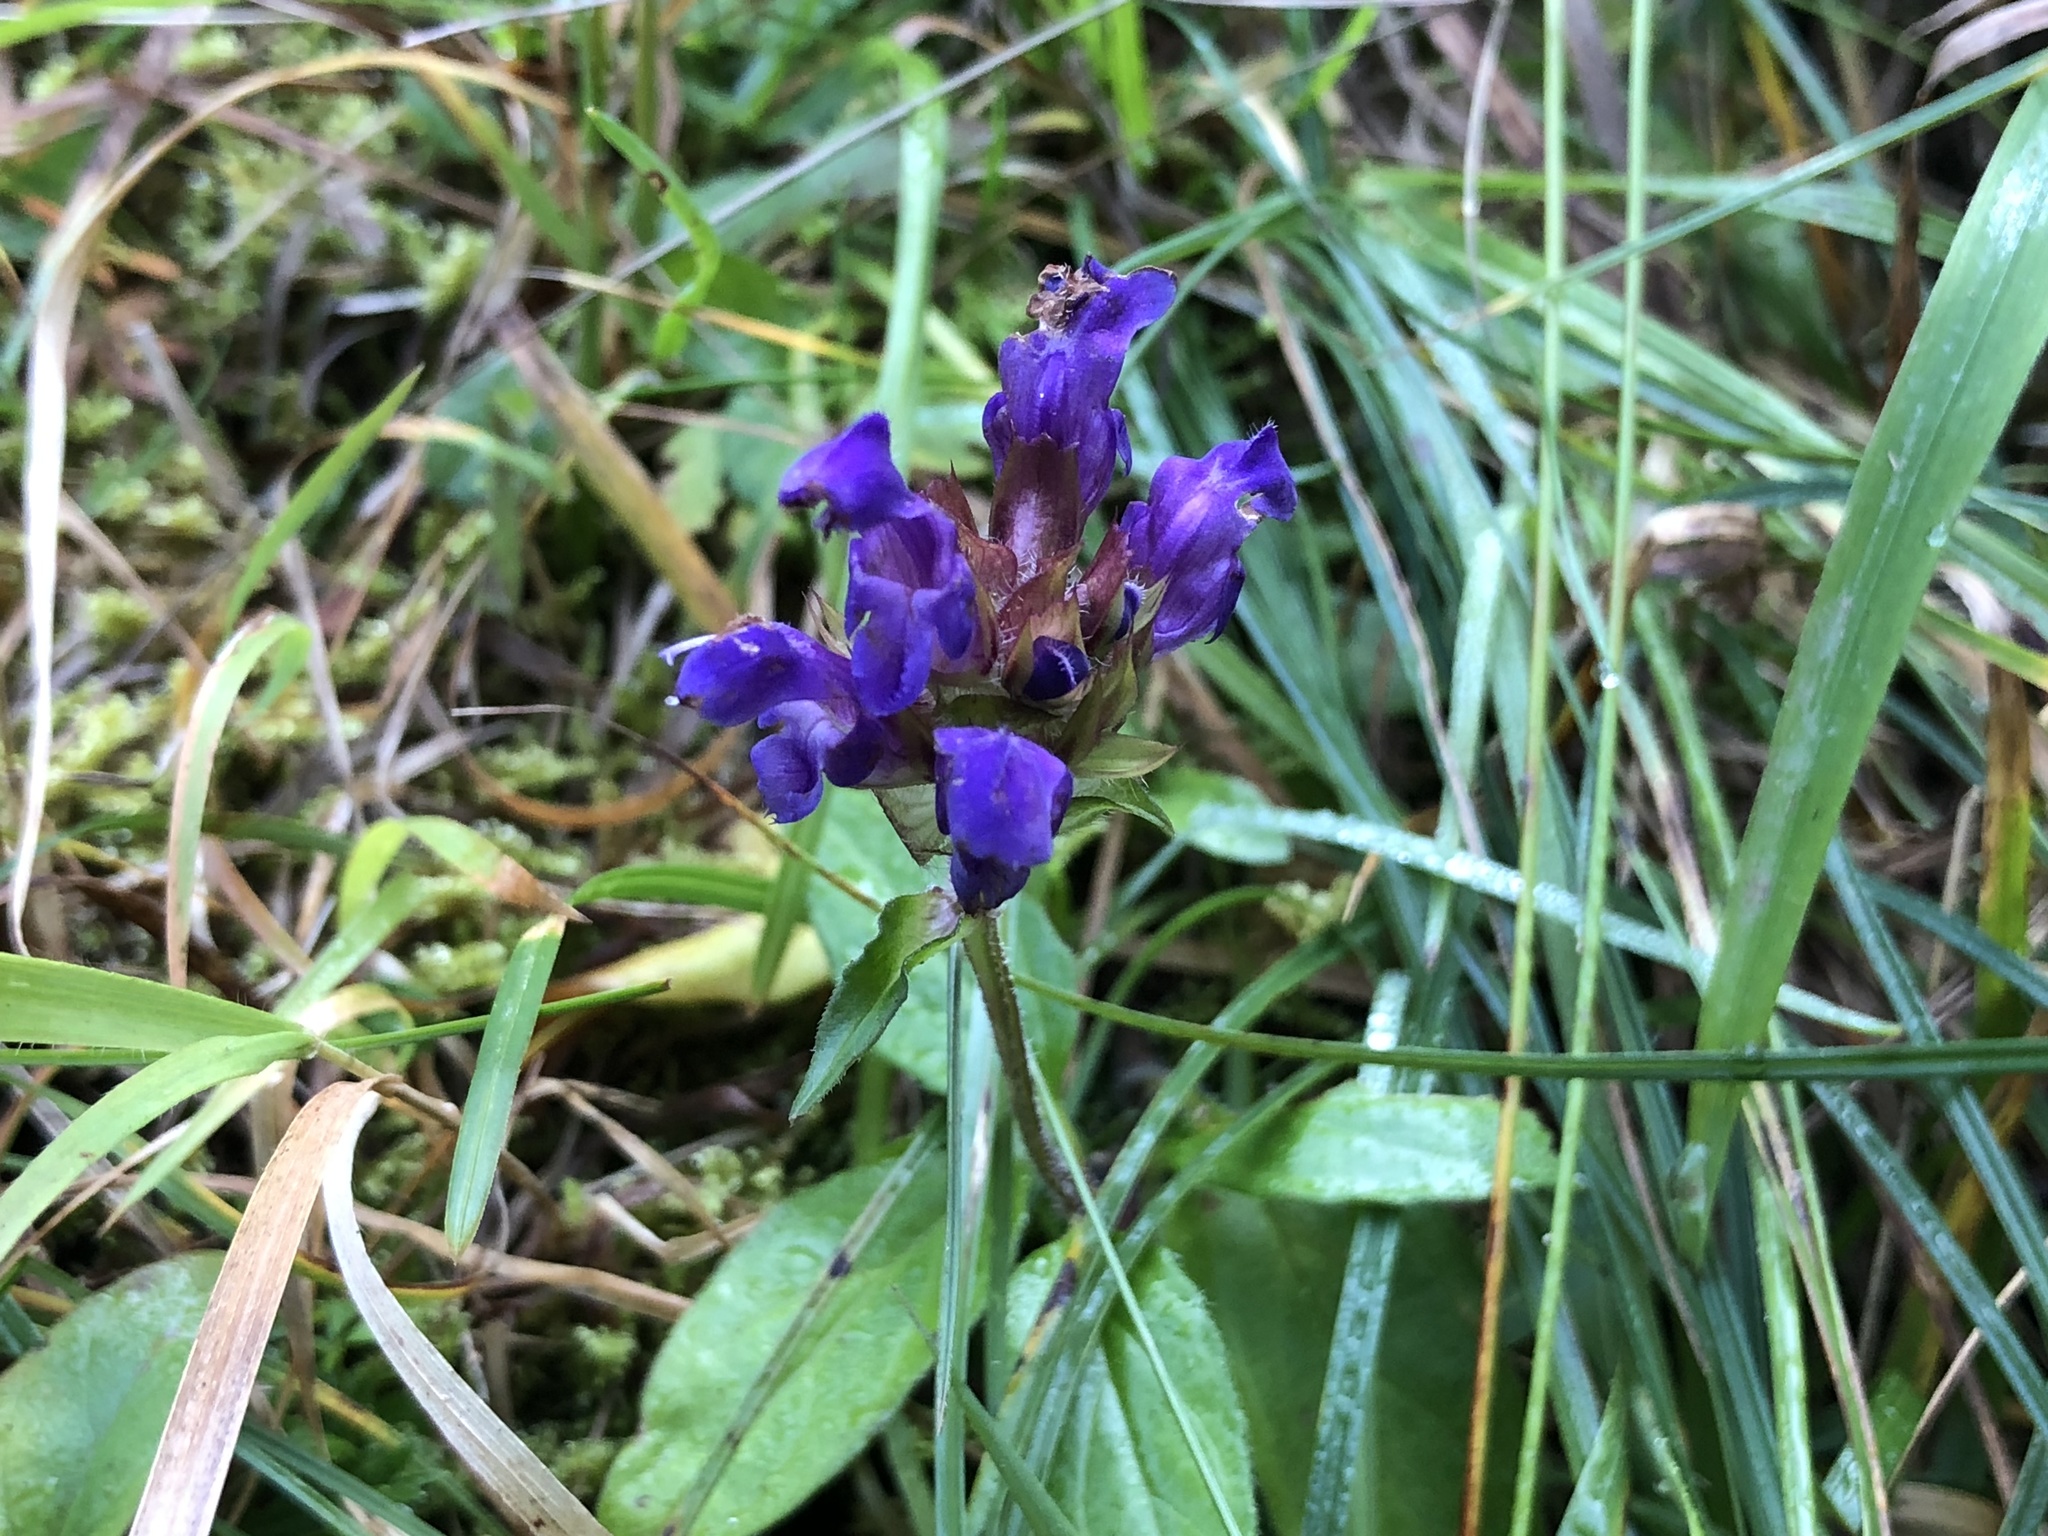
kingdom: Plantae
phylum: Tracheophyta
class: Magnoliopsida
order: Lamiales
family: Lamiaceae
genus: Prunella
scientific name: Prunella grandiflora
